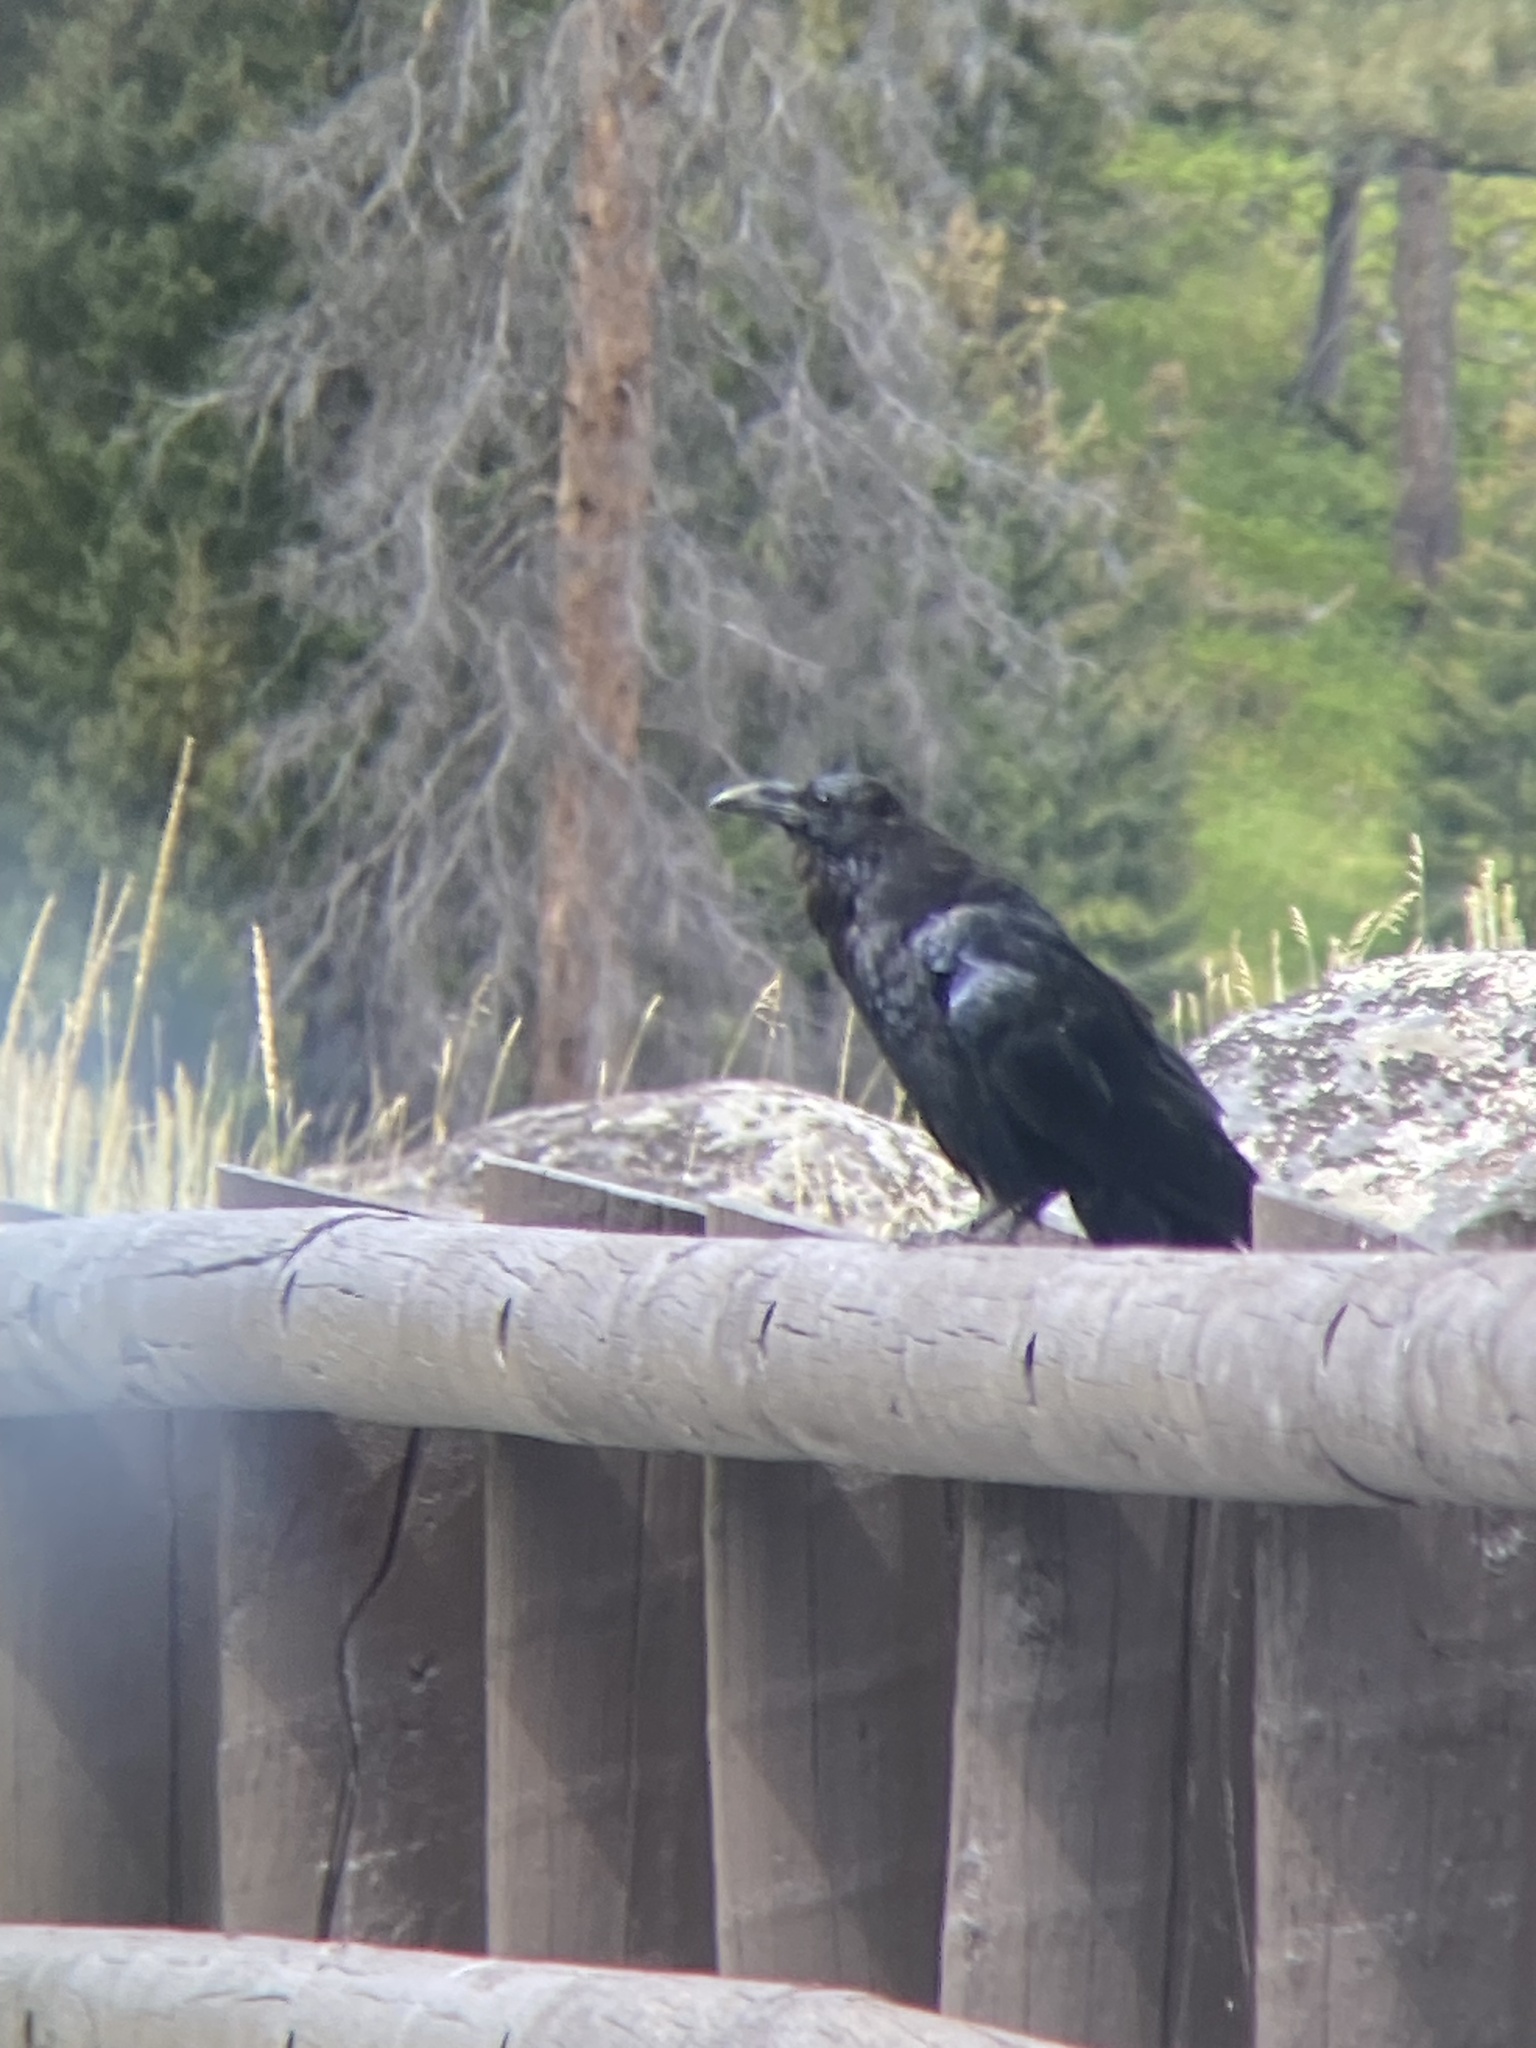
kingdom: Animalia
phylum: Chordata
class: Aves
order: Passeriformes
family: Corvidae
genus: Corvus
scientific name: Corvus corax
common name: Common raven
